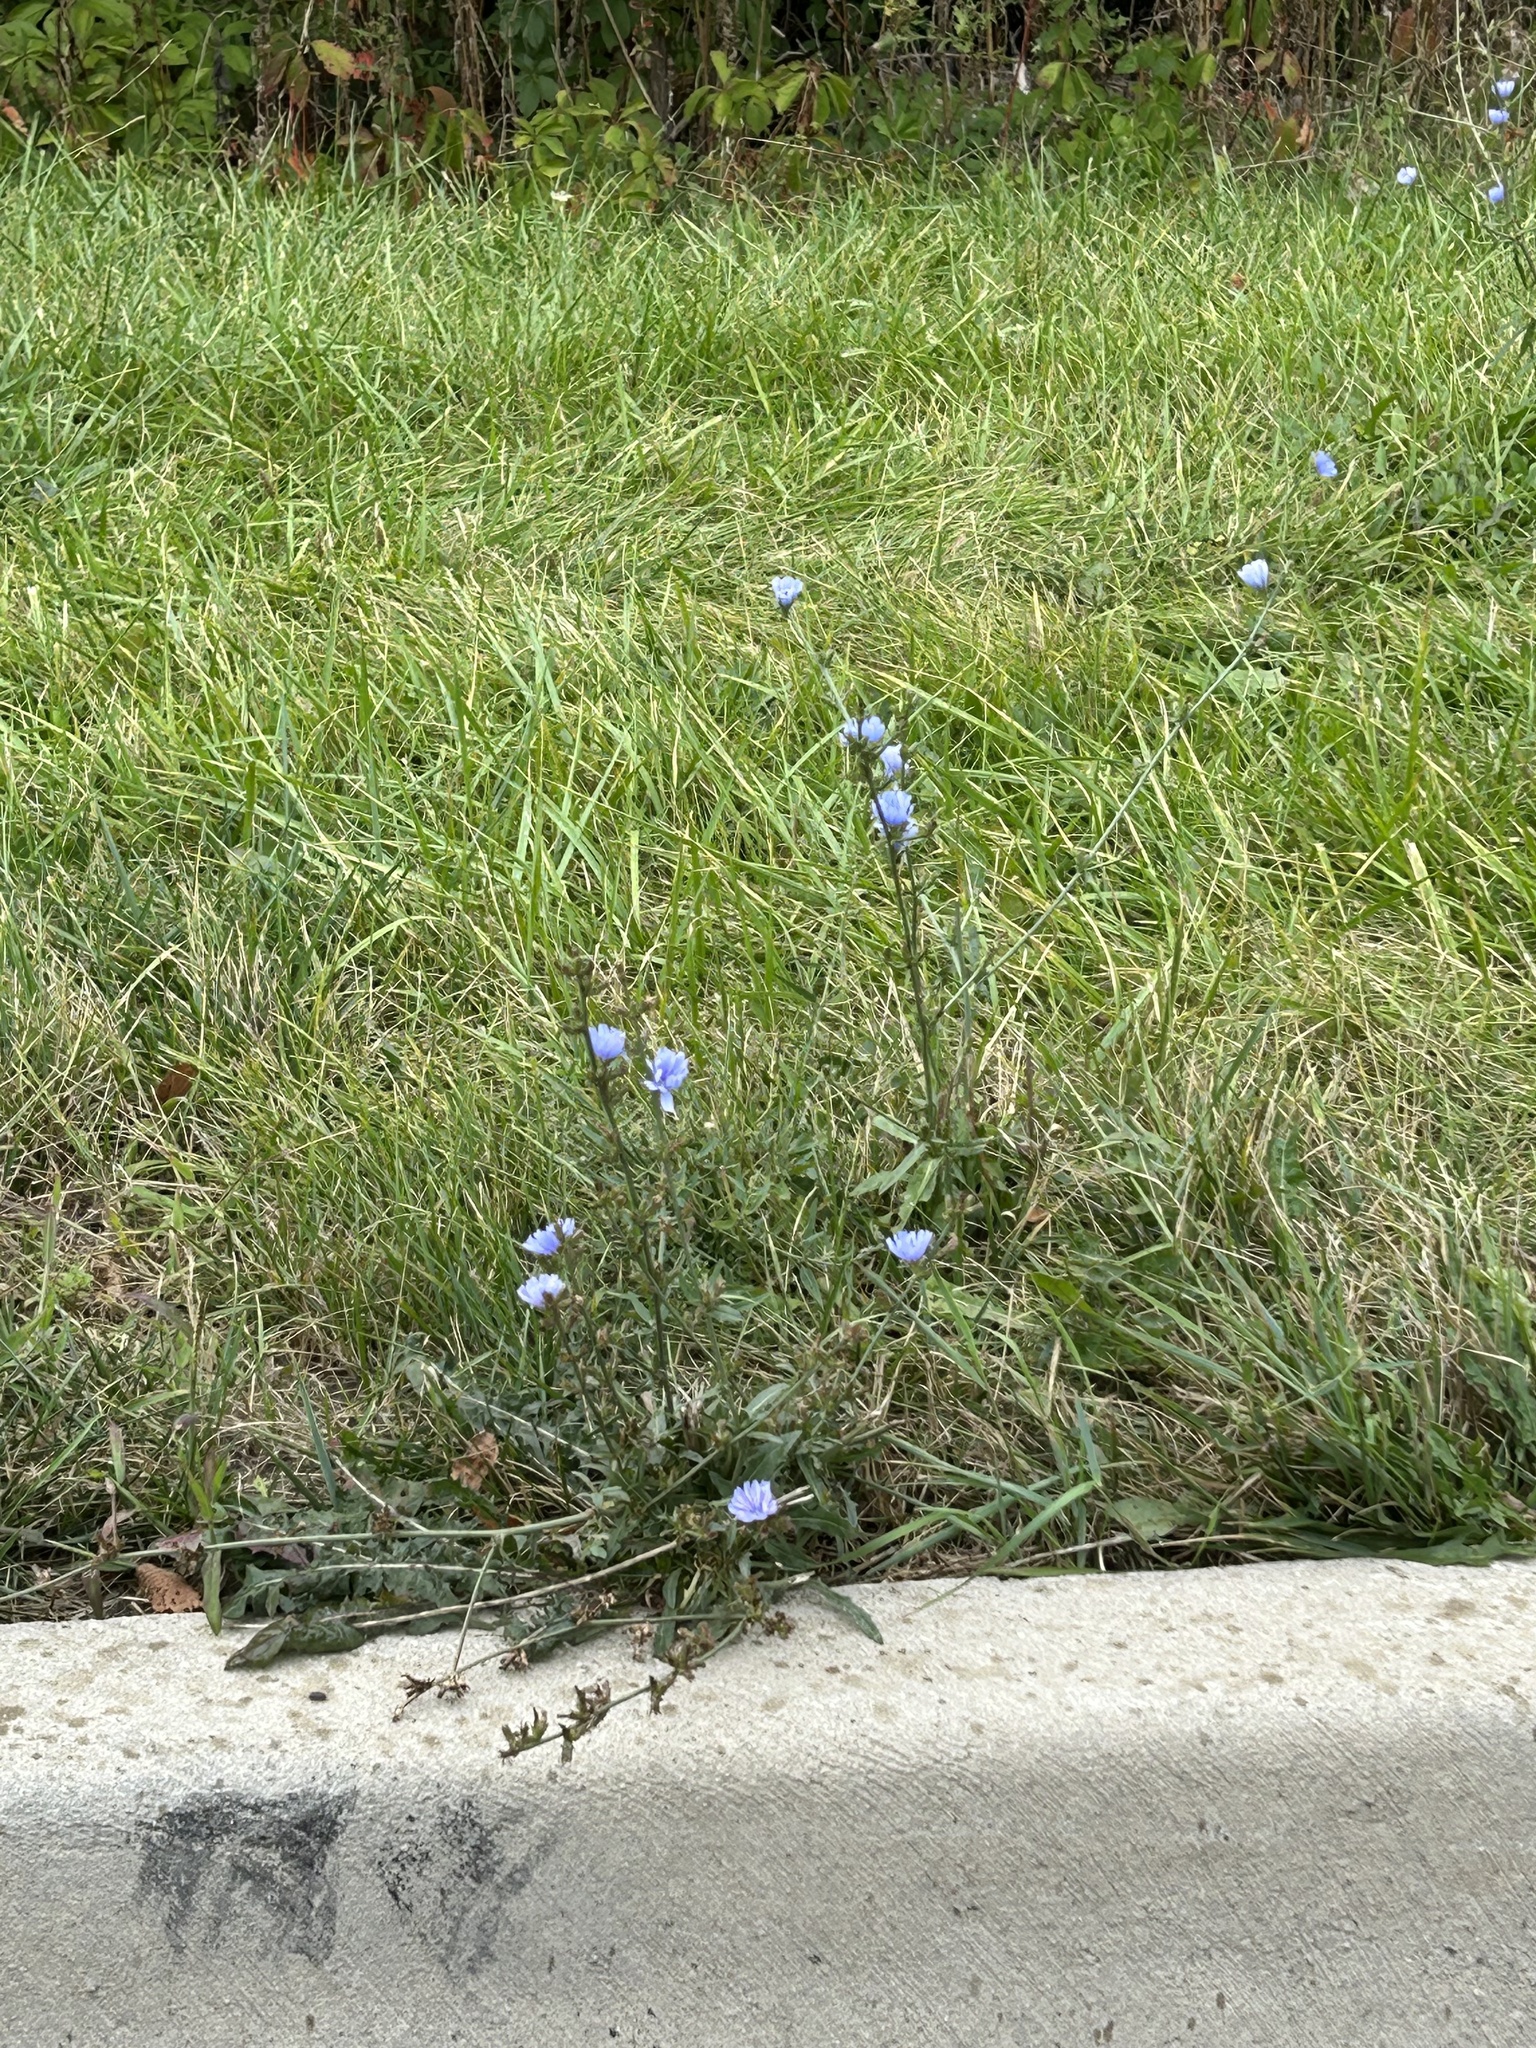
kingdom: Plantae
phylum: Tracheophyta
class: Magnoliopsida
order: Asterales
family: Asteraceae
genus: Cichorium
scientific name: Cichorium intybus
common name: Chicory
